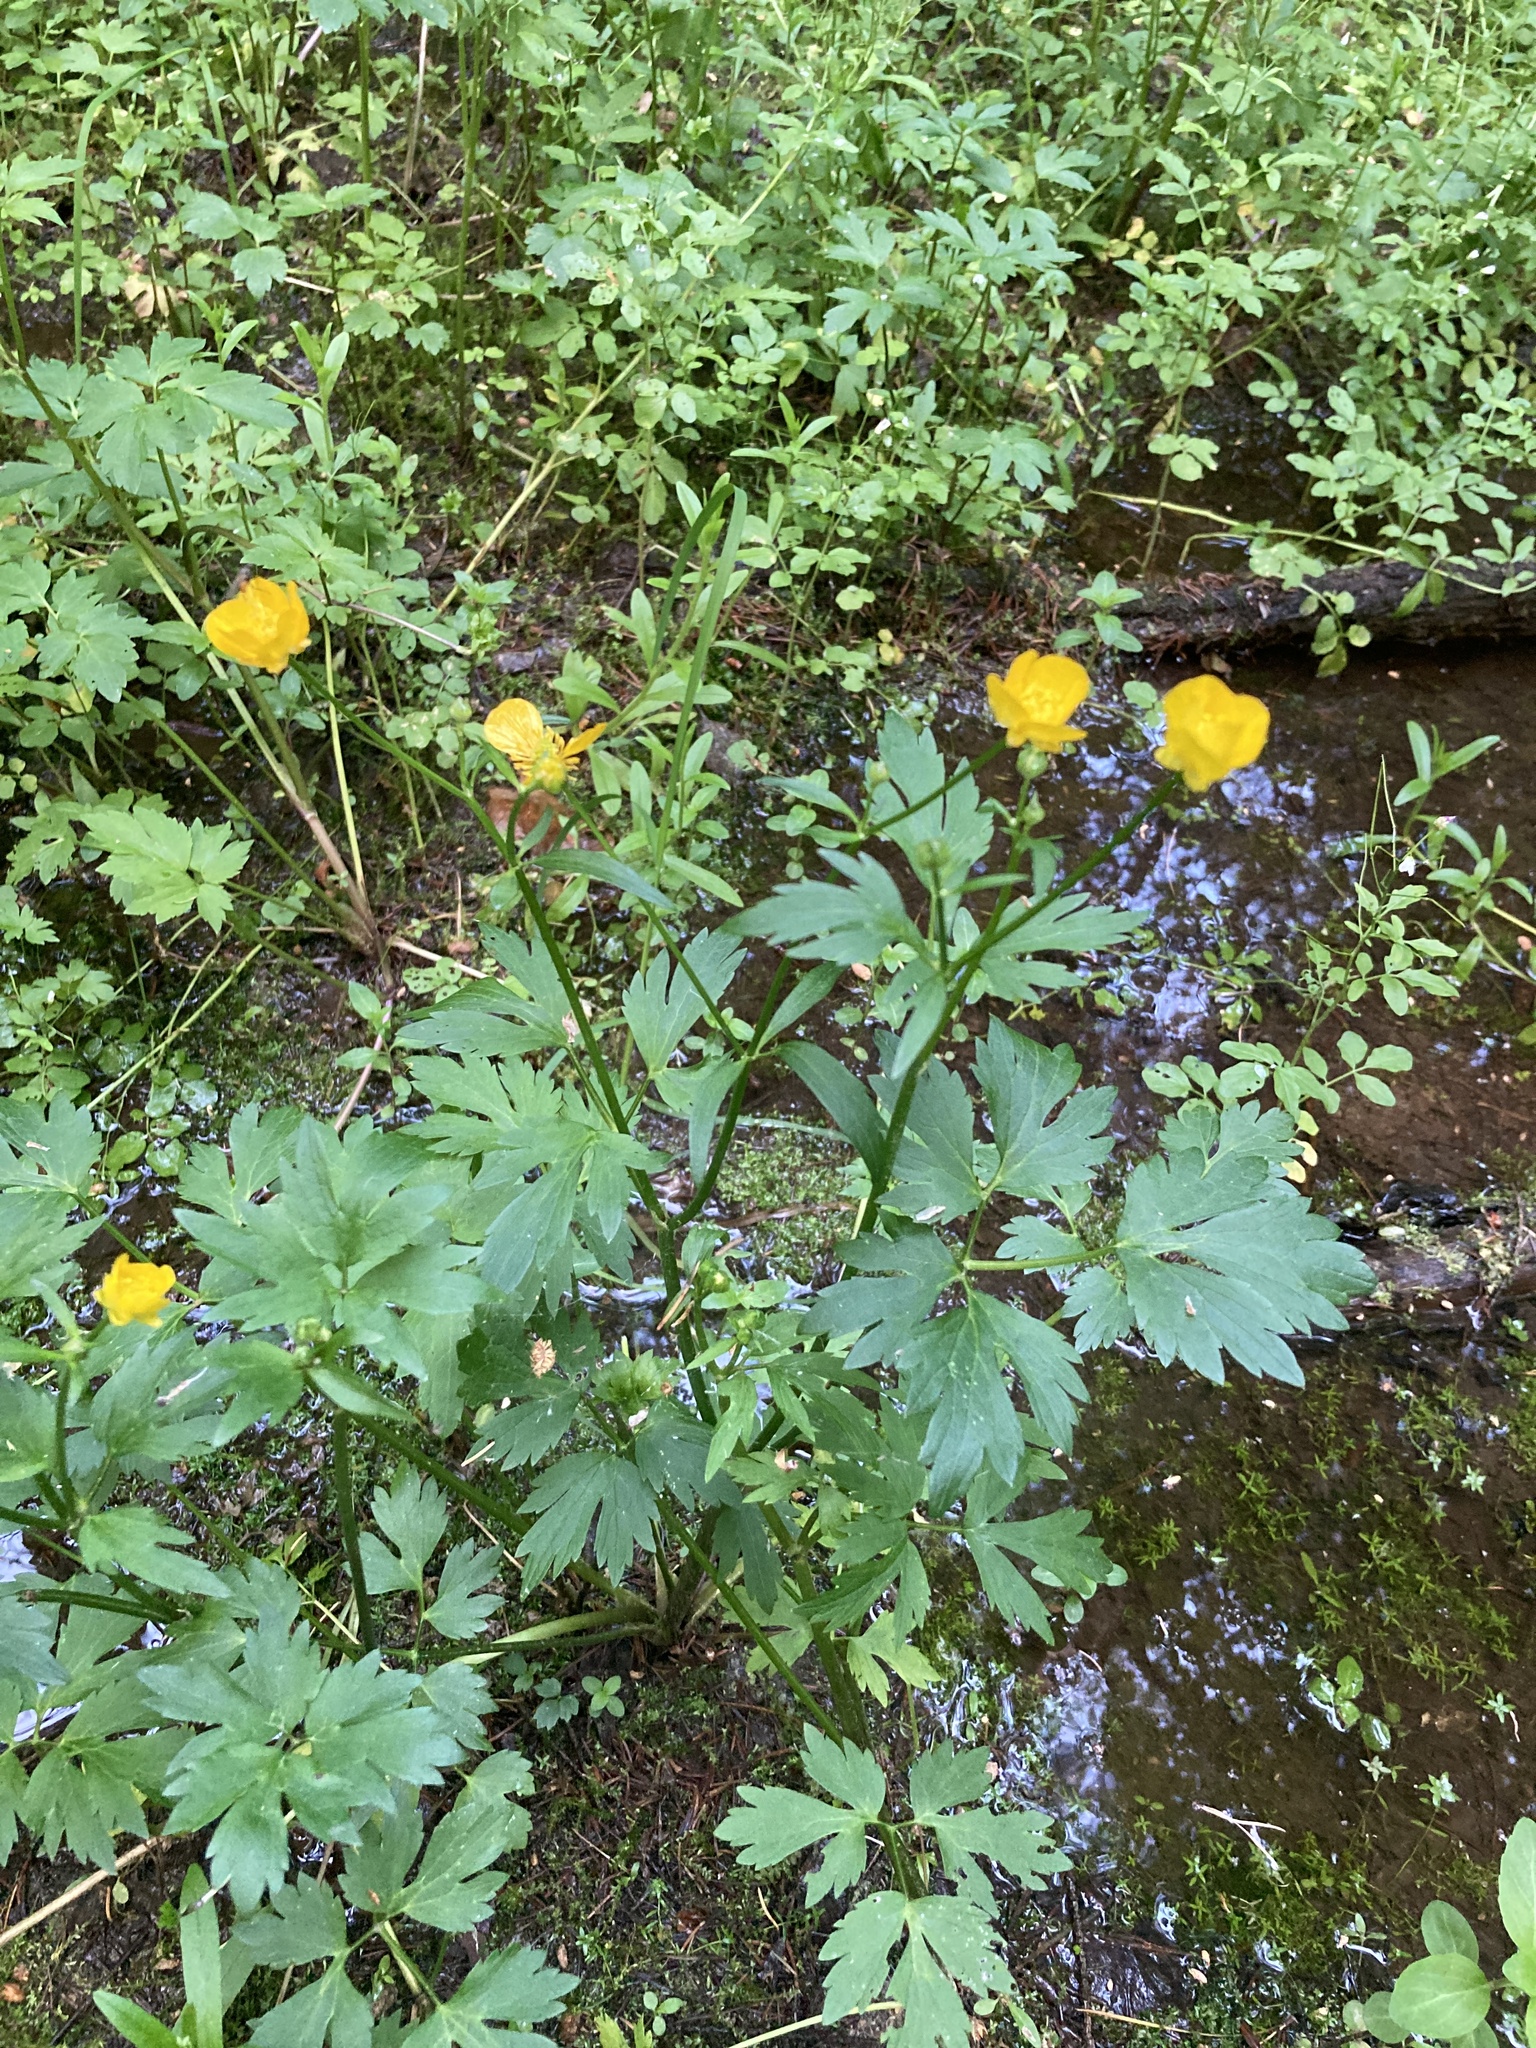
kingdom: Plantae
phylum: Tracheophyta
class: Magnoliopsida
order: Ranunculales
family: Ranunculaceae
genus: Ranunculus
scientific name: Ranunculus repens
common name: Creeping buttercup
